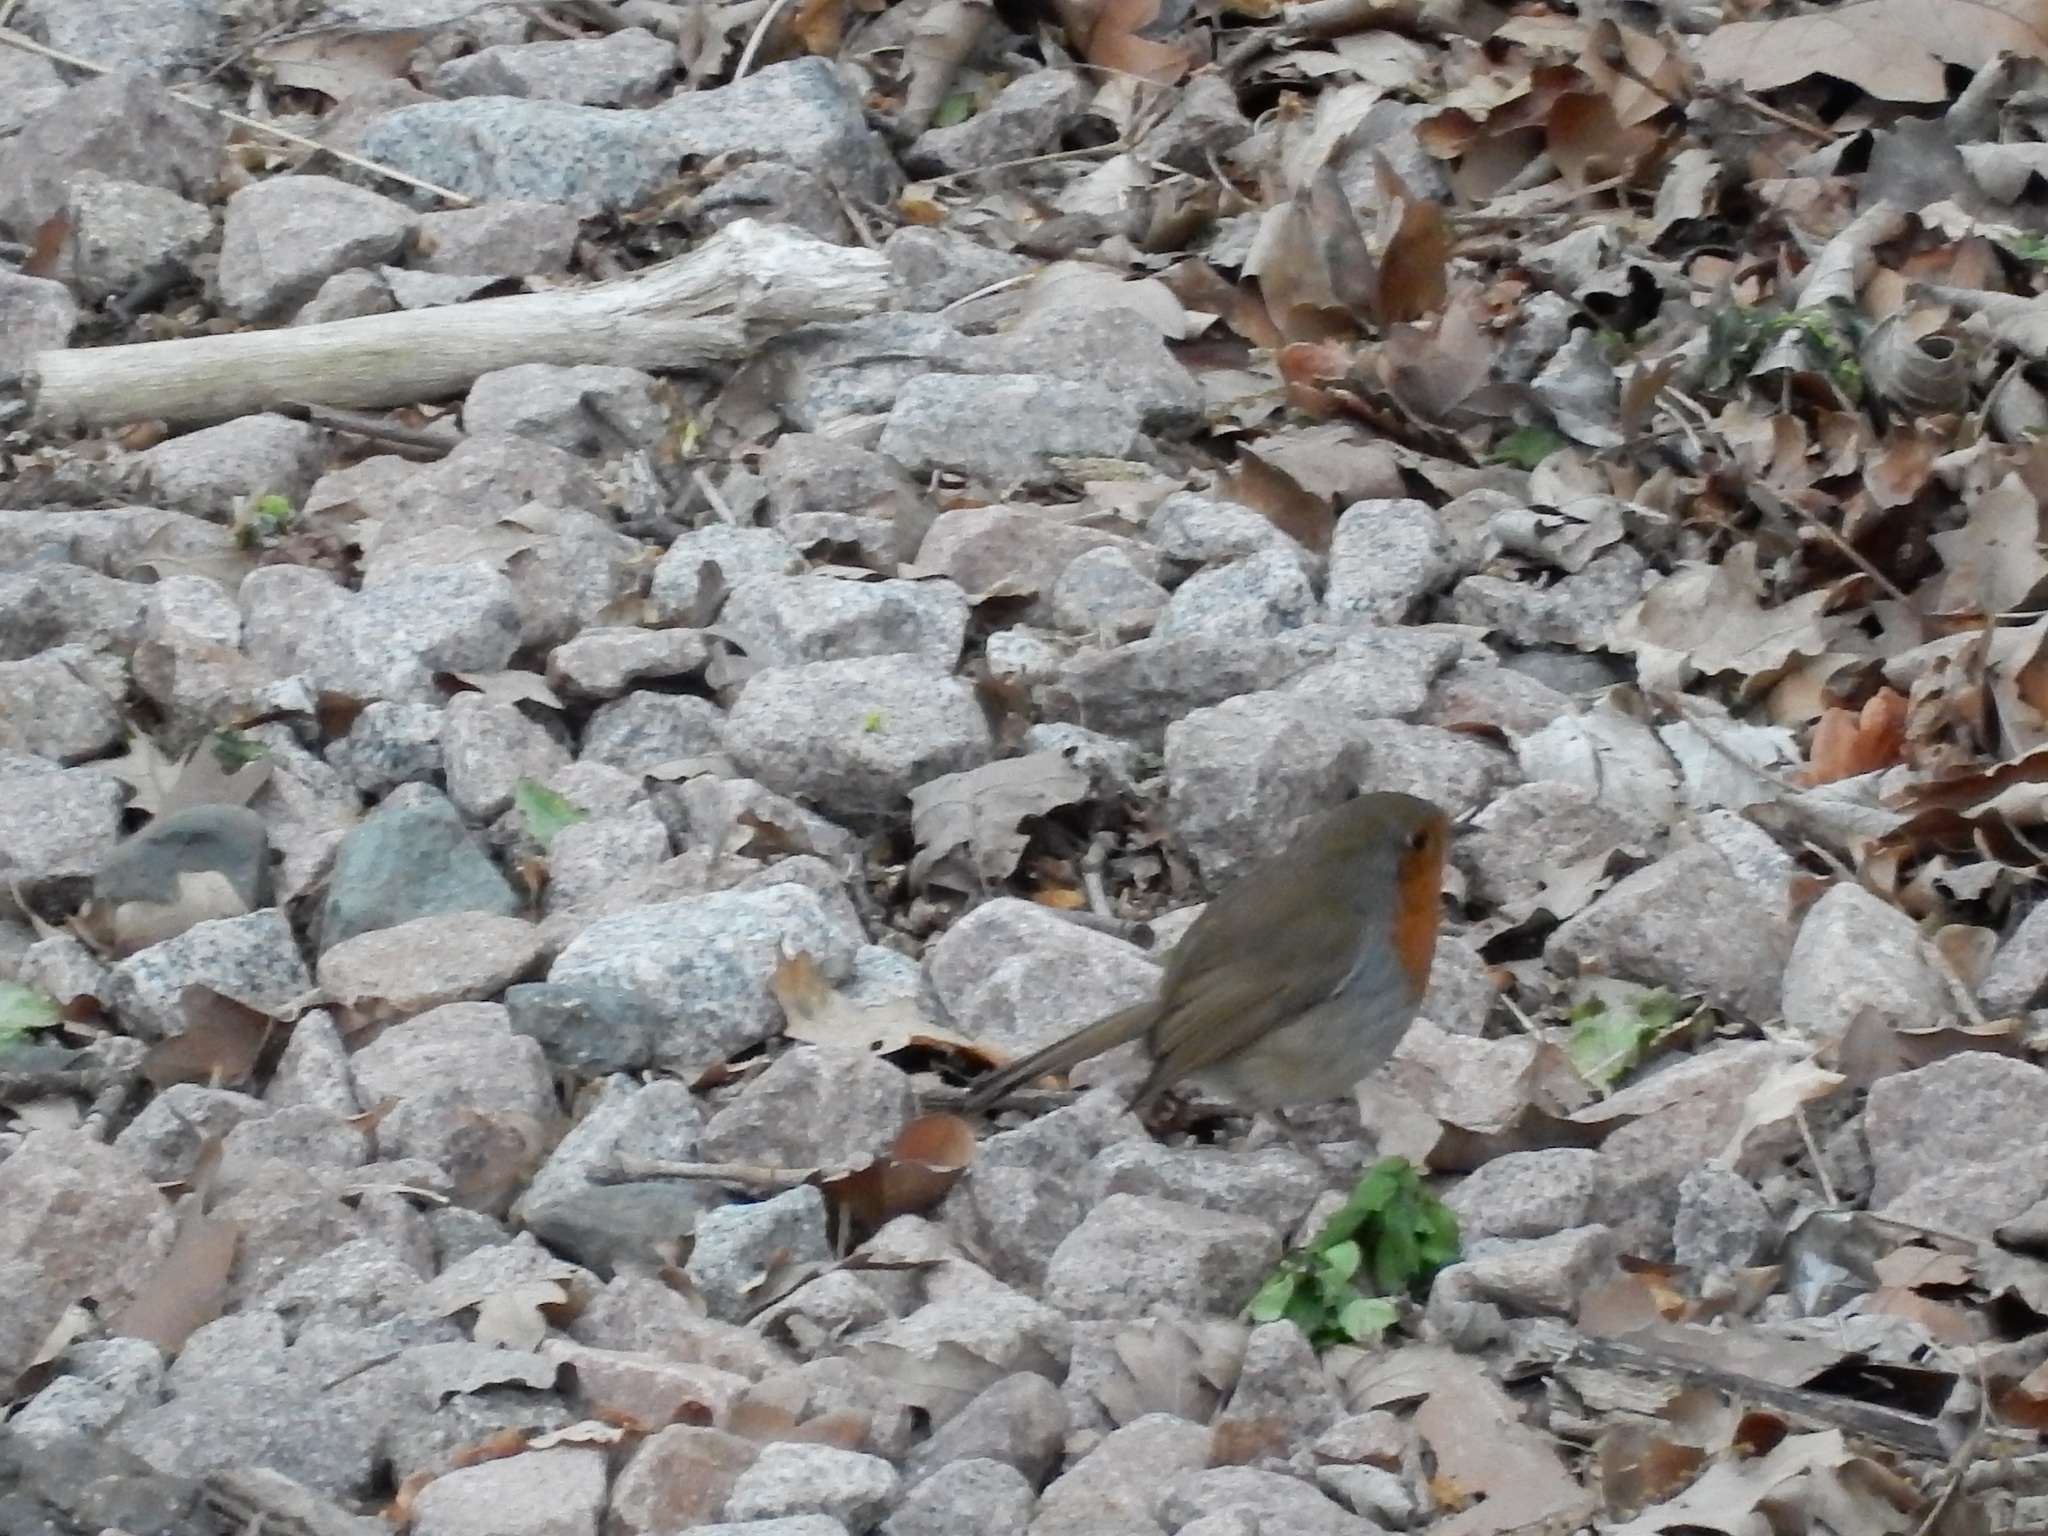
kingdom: Animalia
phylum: Chordata
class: Aves
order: Passeriformes
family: Muscicapidae
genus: Erithacus
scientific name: Erithacus rubecula
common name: European robin
